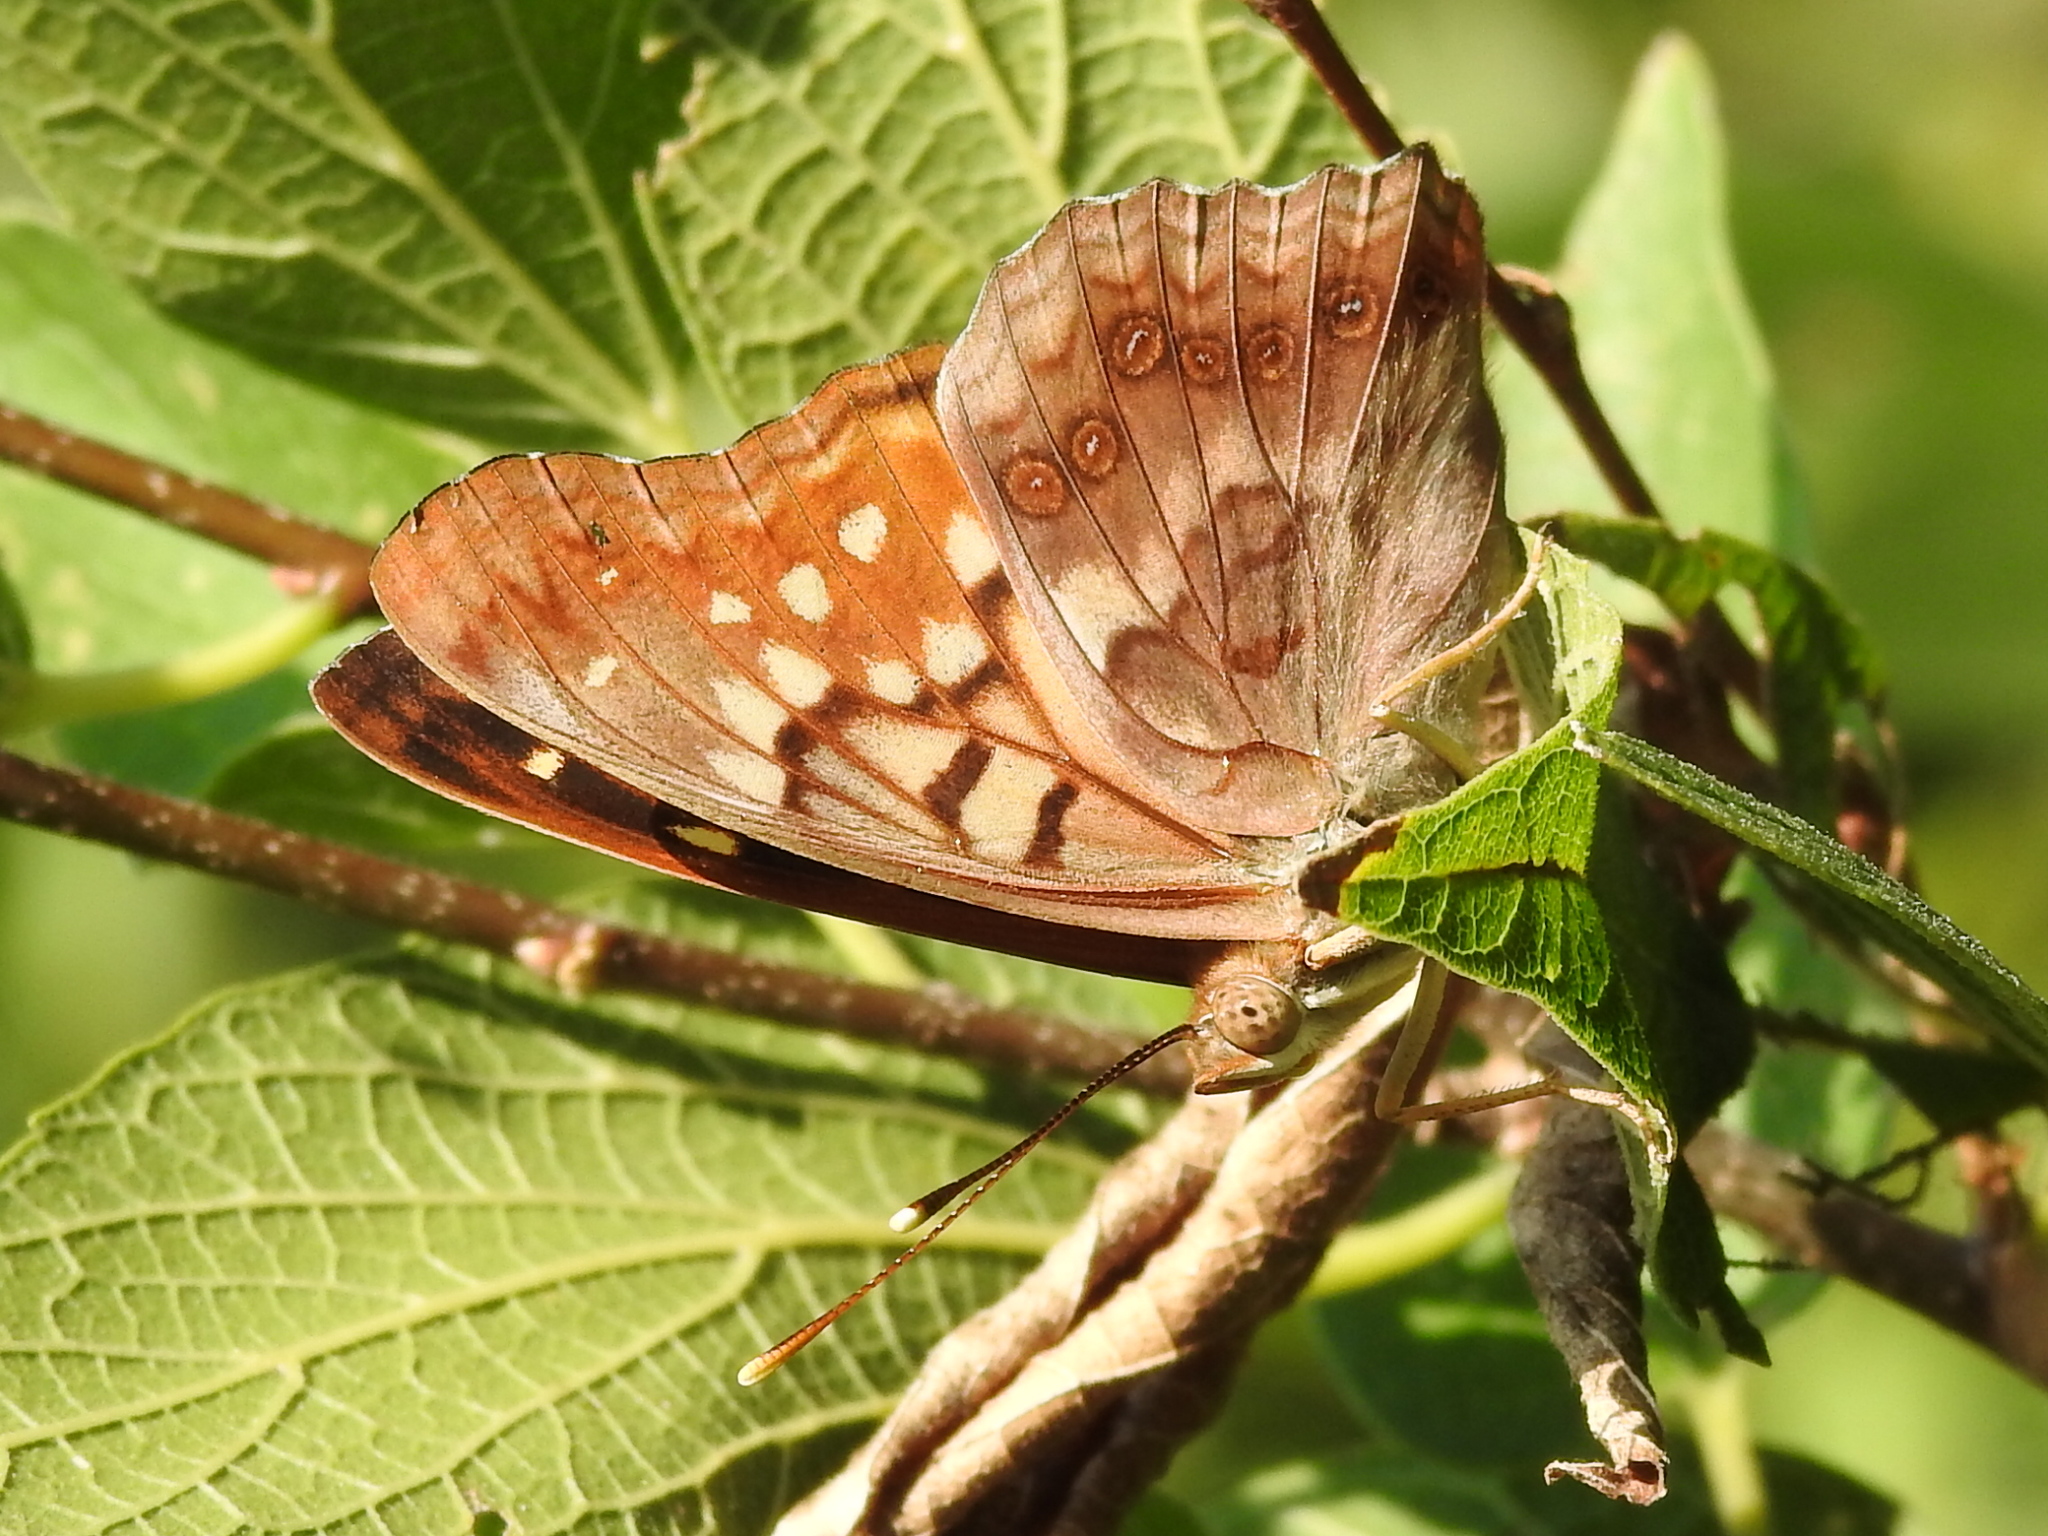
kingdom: Animalia
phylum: Arthropoda
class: Insecta
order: Lepidoptera
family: Nymphalidae
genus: Asterocampa
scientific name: Asterocampa clyton
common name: Tawny emperor
